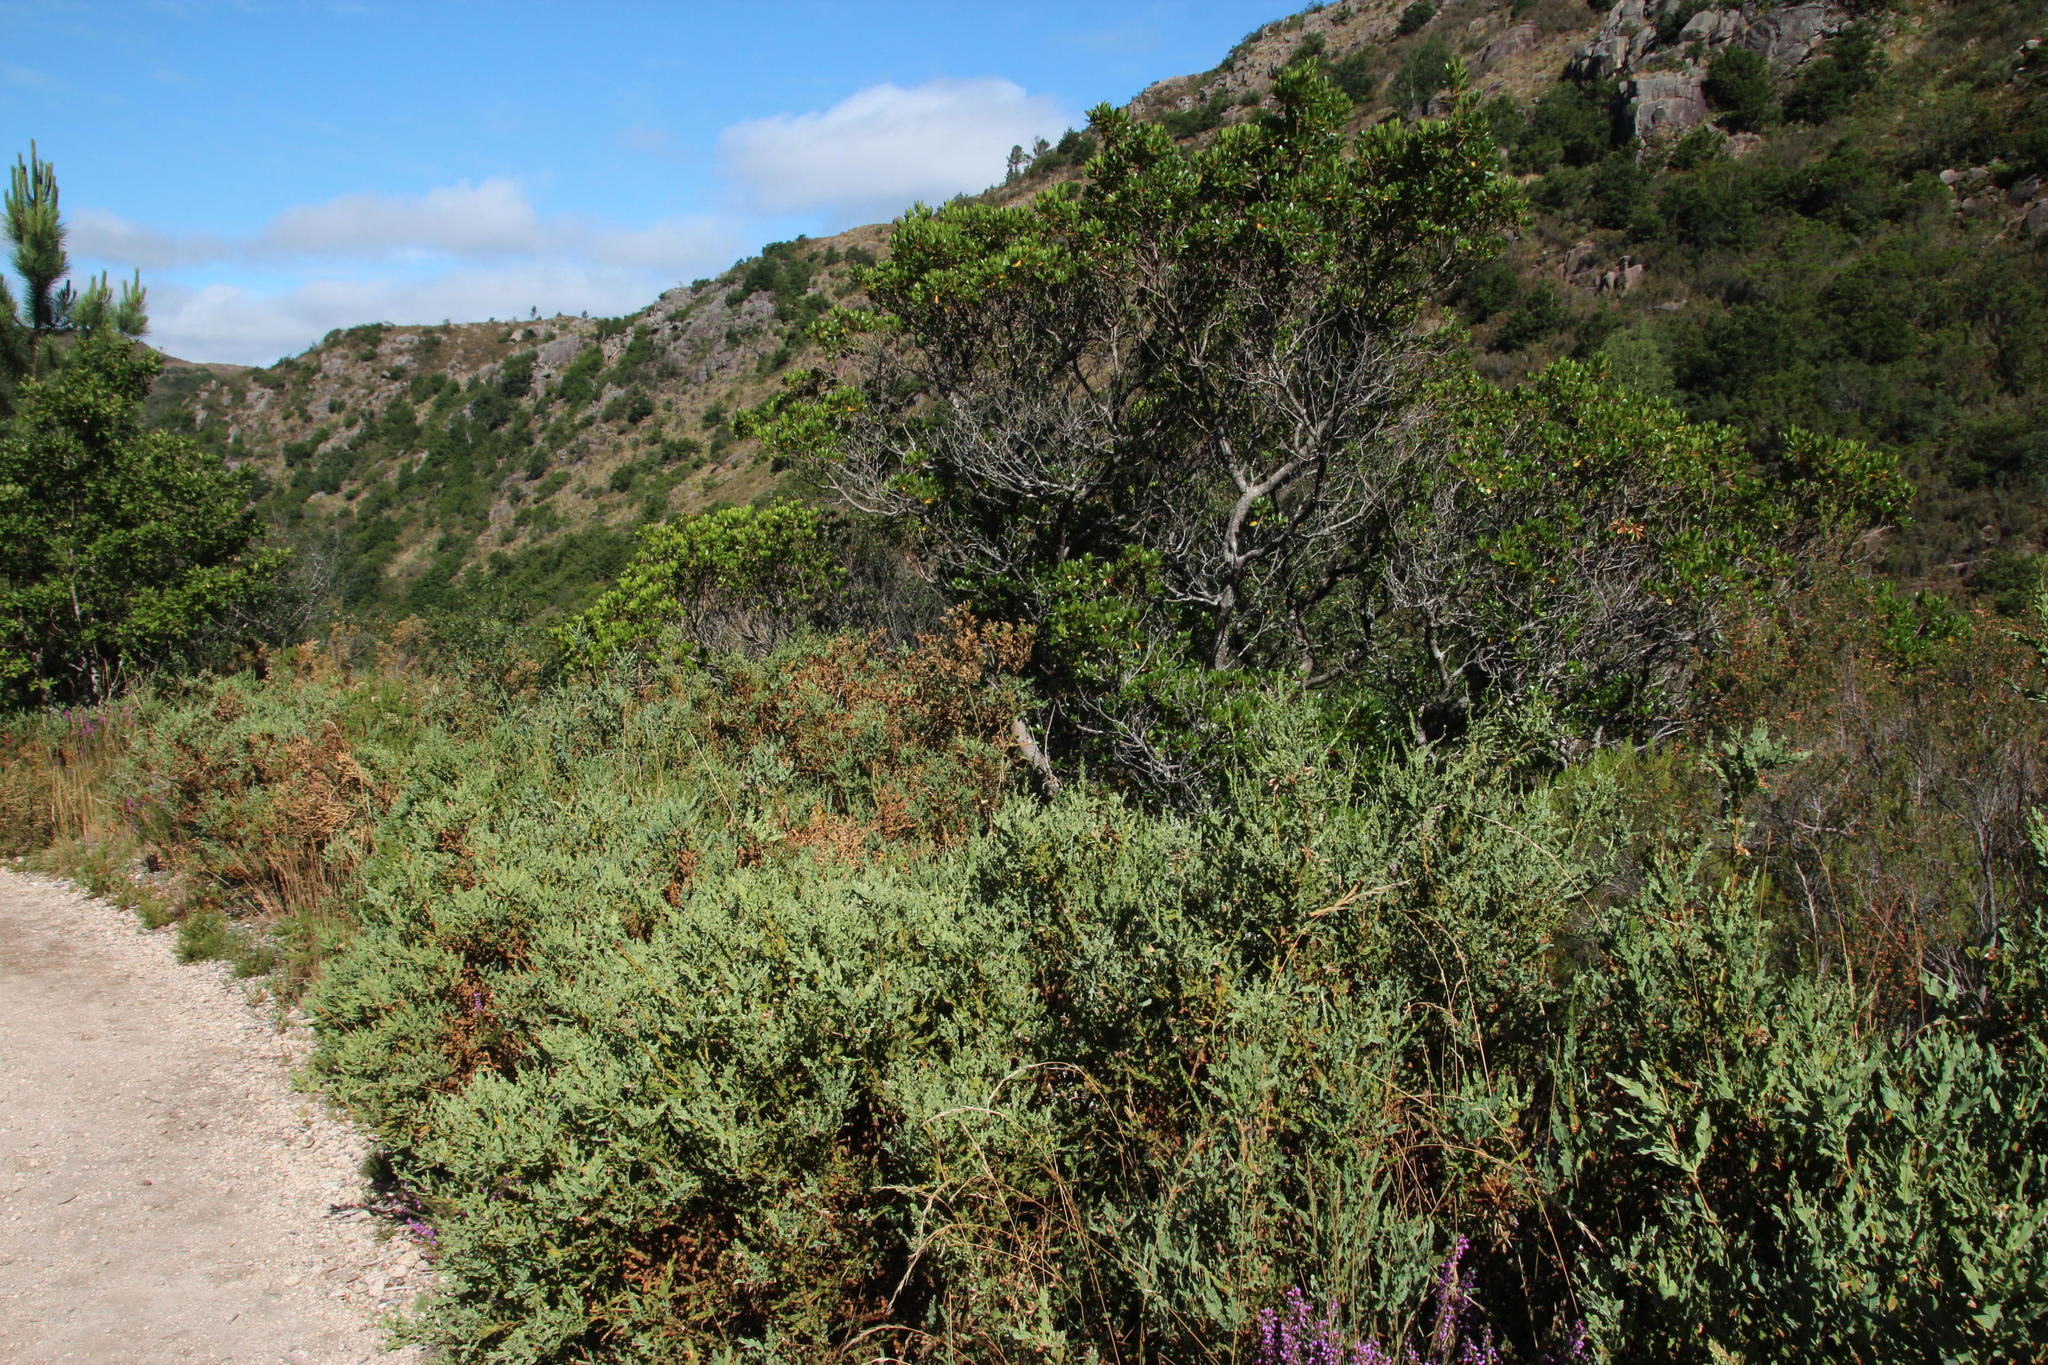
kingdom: Plantae
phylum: Tracheophyta
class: Magnoliopsida
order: Fabales
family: Fabaceae
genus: Genista
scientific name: Genista tridentata
